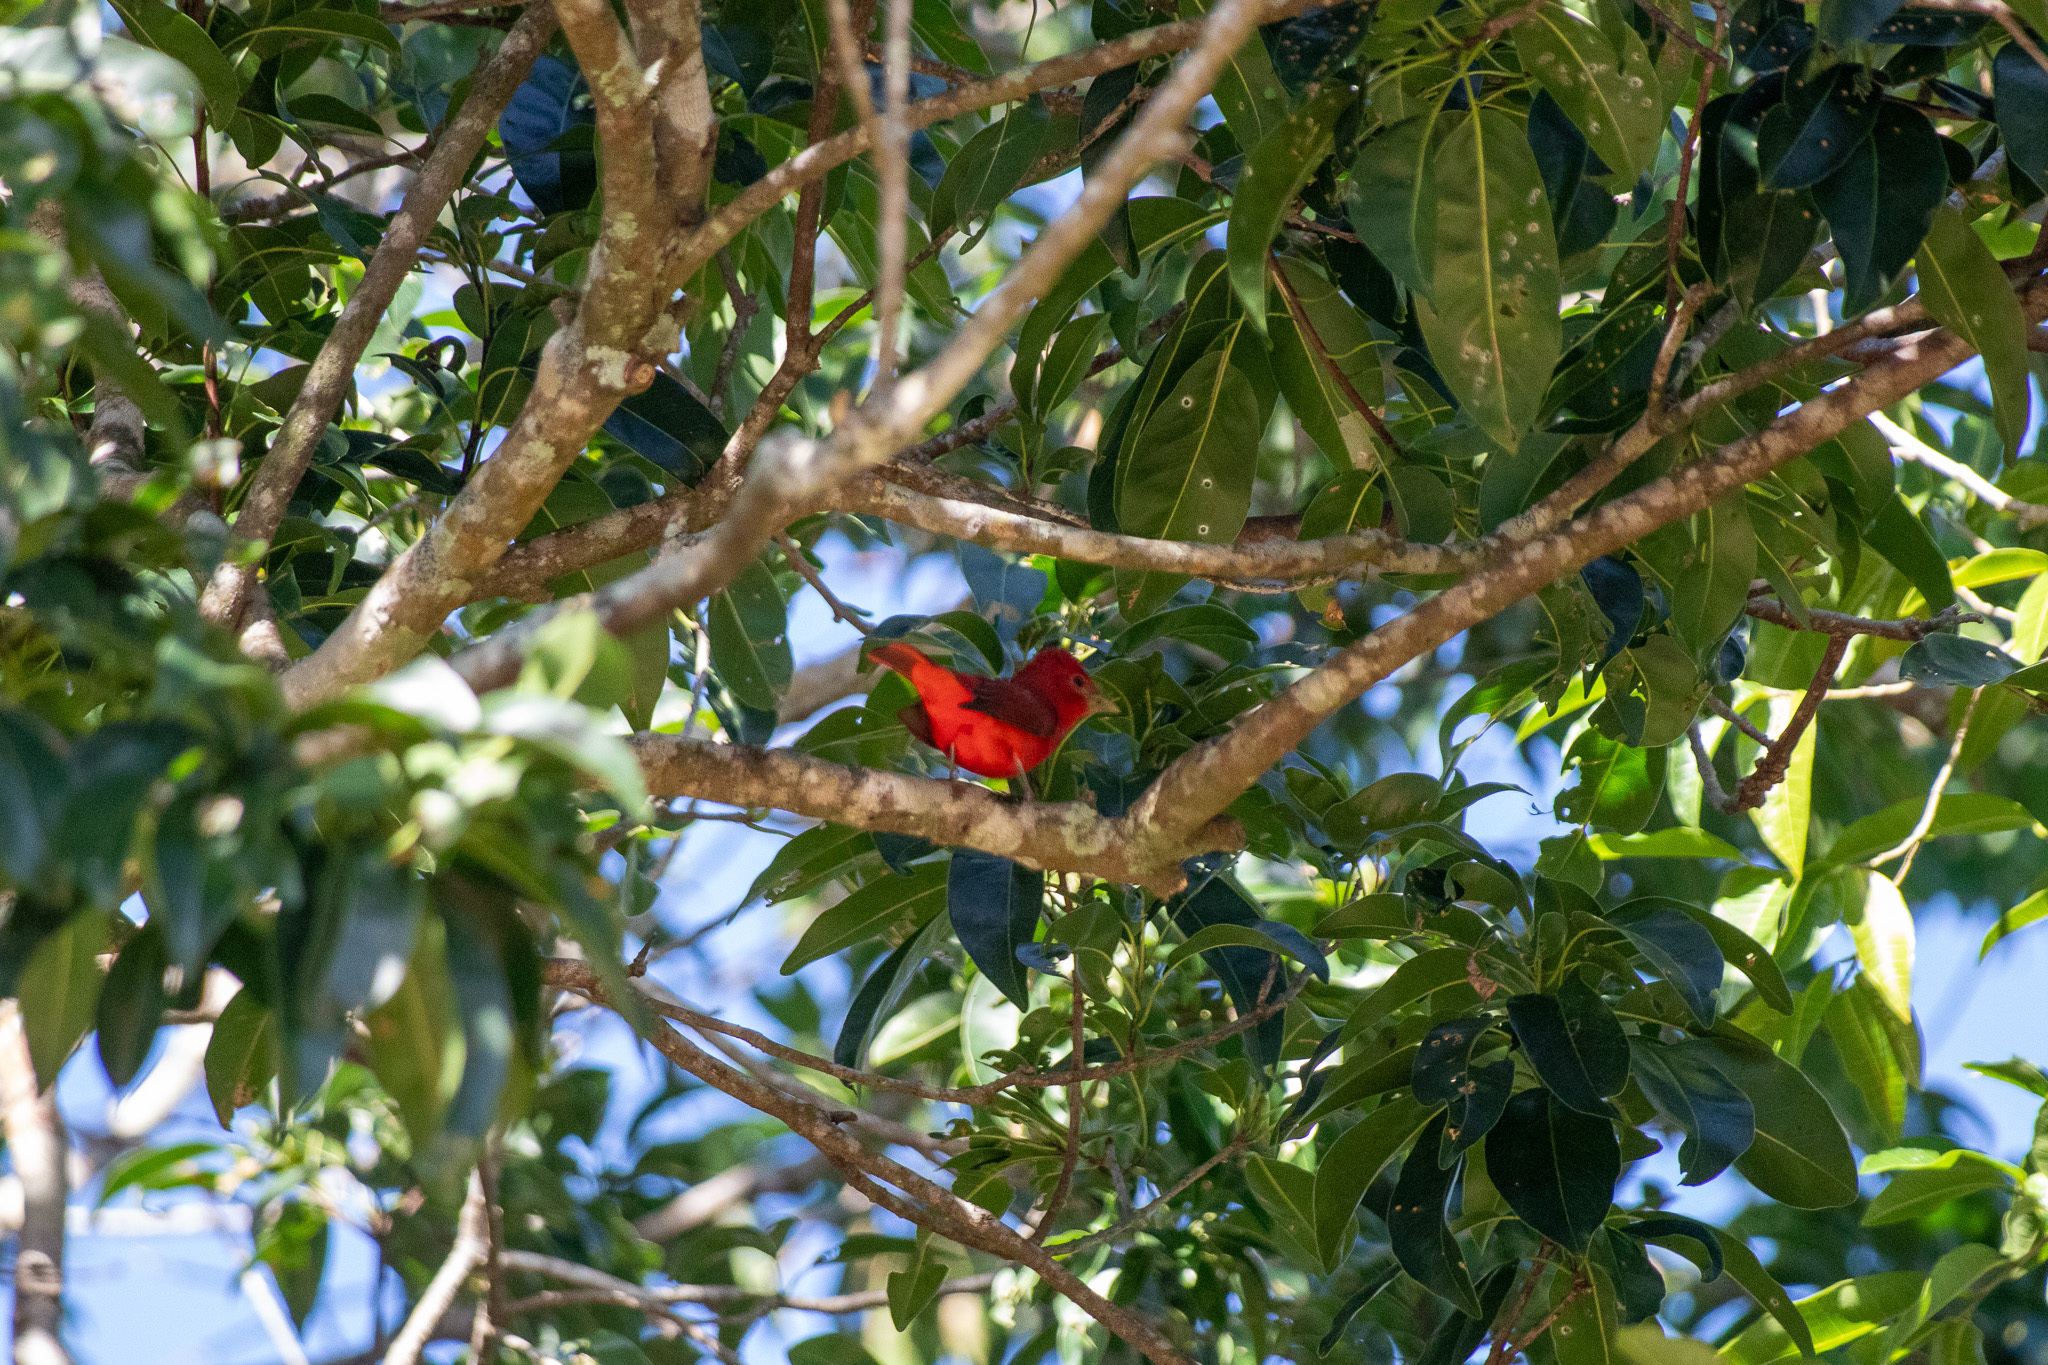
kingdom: Animalia
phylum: Chordata
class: Aves
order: Passeriformes
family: Cardinalidae
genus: Piranga
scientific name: Piranga rubra
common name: Summer tanager
